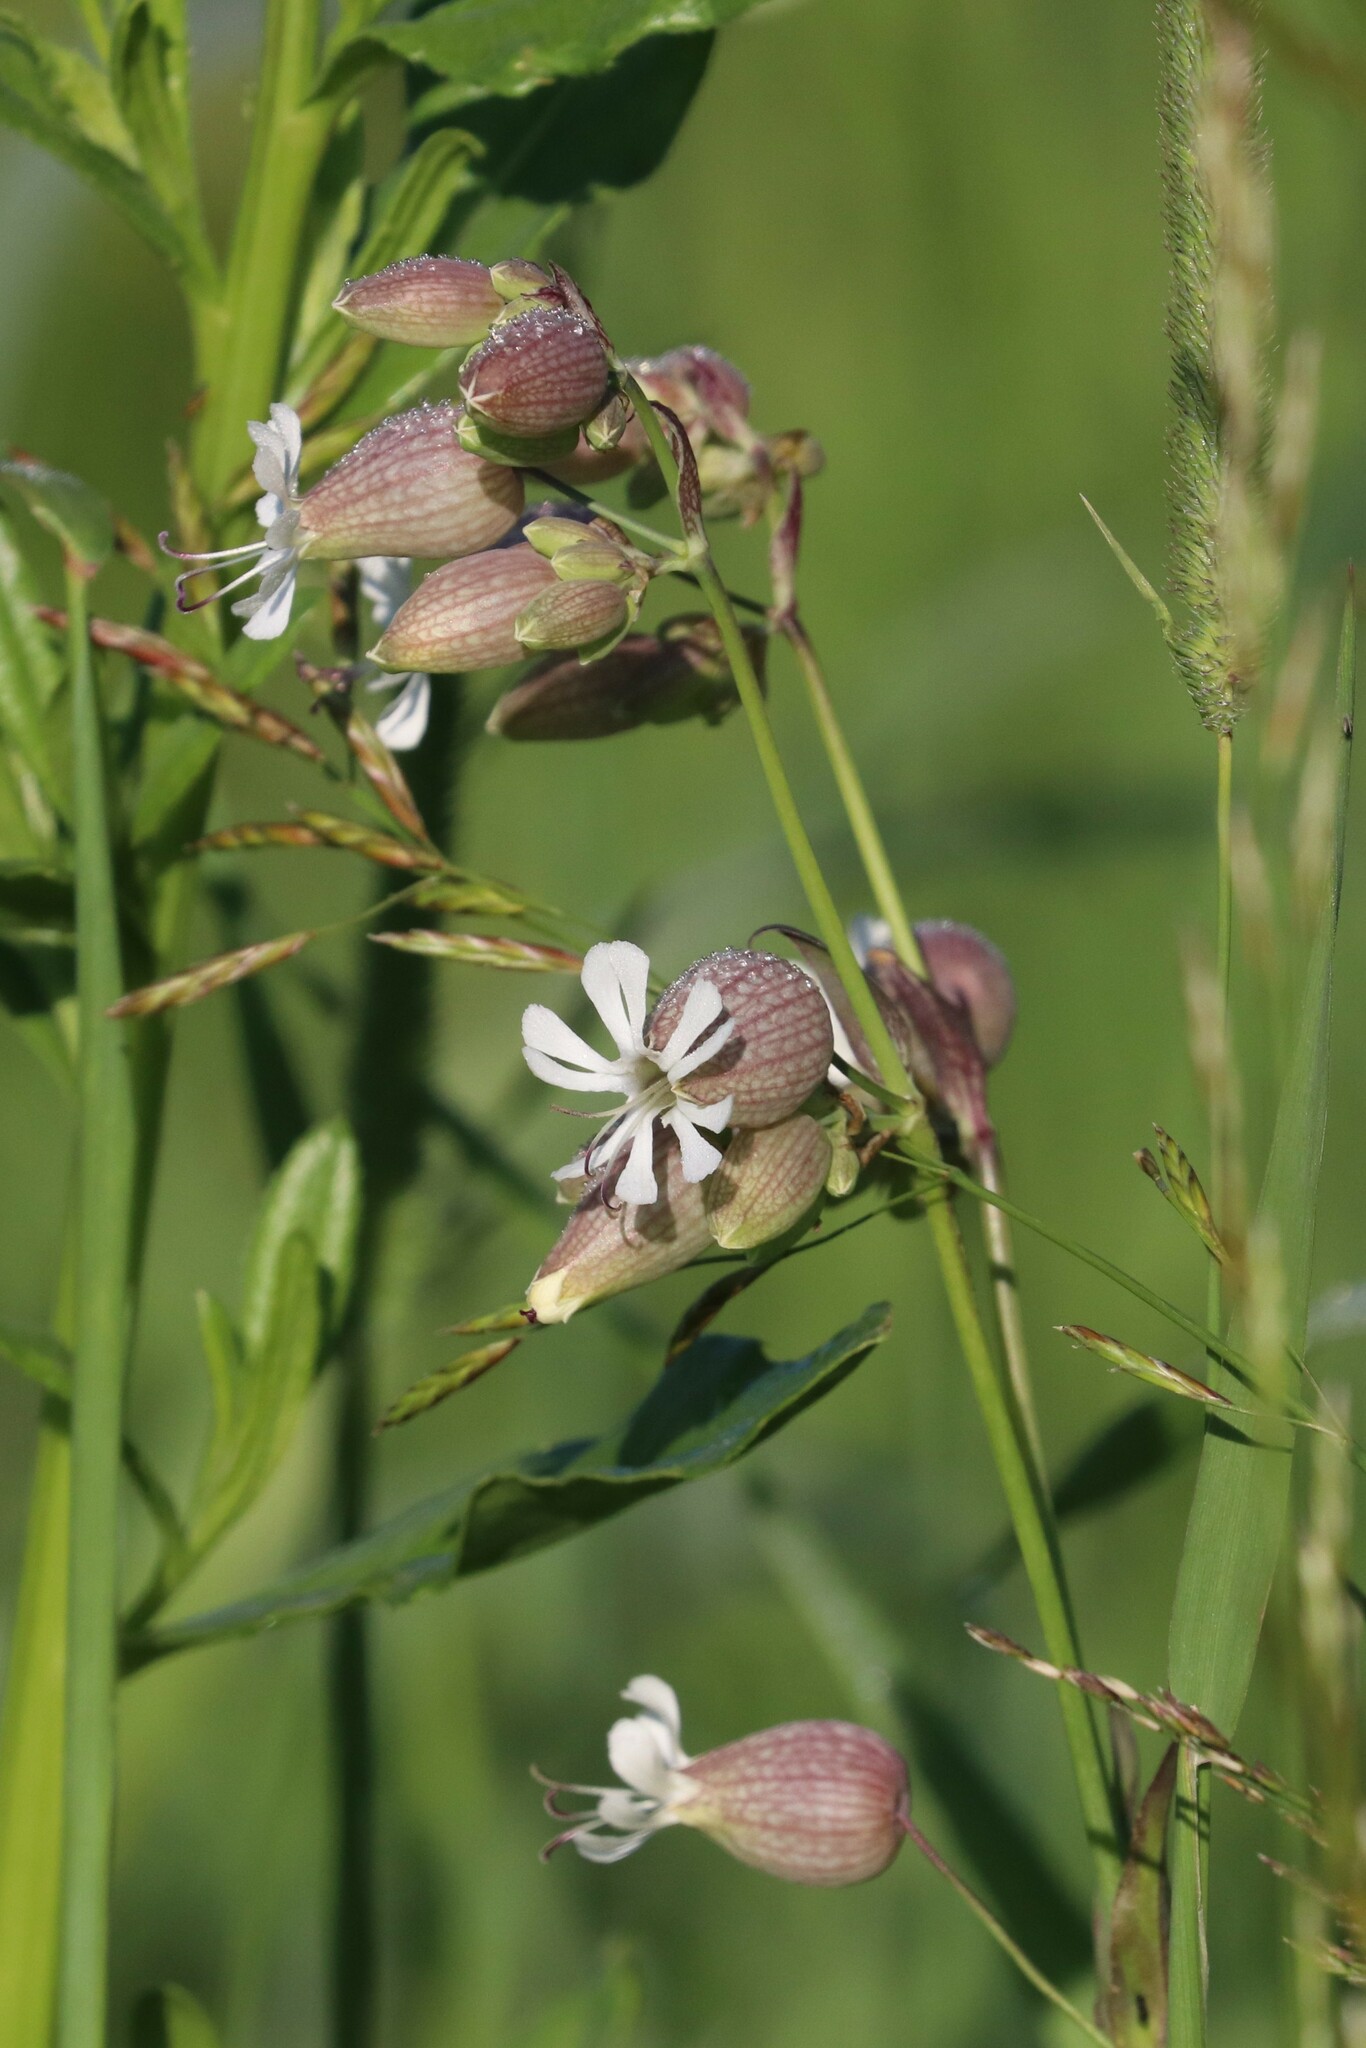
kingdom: Plantae
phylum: Tracheophyta
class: Magnoliopsida
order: Caryophyllales
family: Caryophyllaceae
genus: Silene
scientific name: Silene vulgaris
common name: Bladder campion
